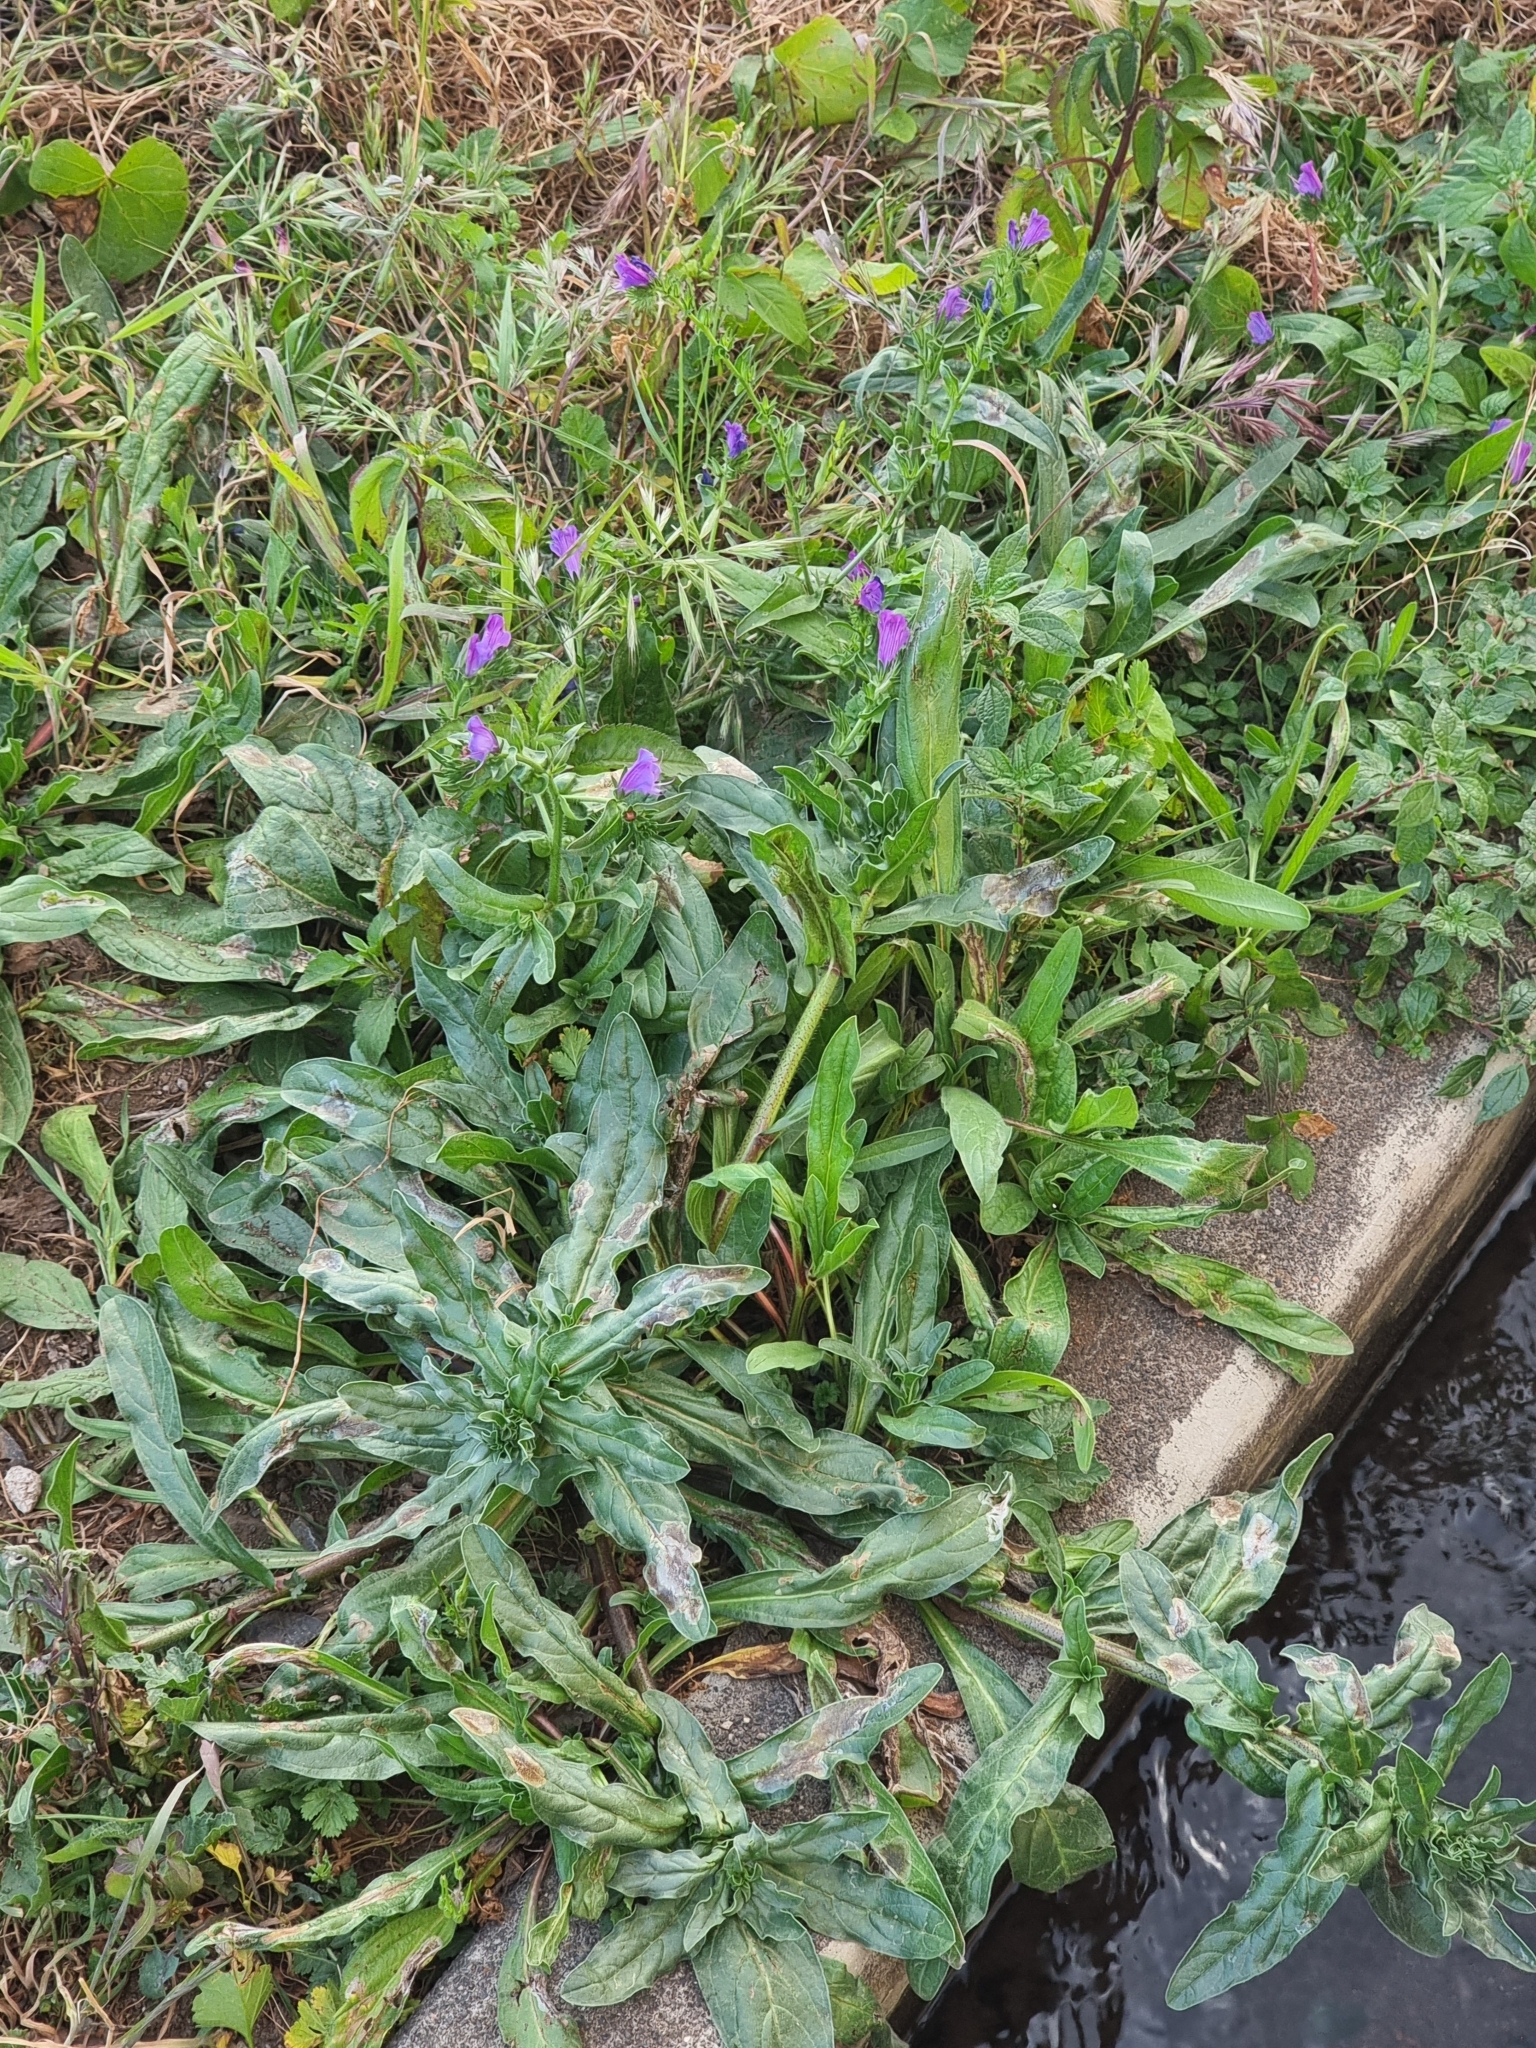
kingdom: Plantae
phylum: Tracheophyta
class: Magnoliopsida
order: Boraginales
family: Boraginaceae
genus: Echium
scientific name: Echium plantagineum
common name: Purple viper's-bugloss
